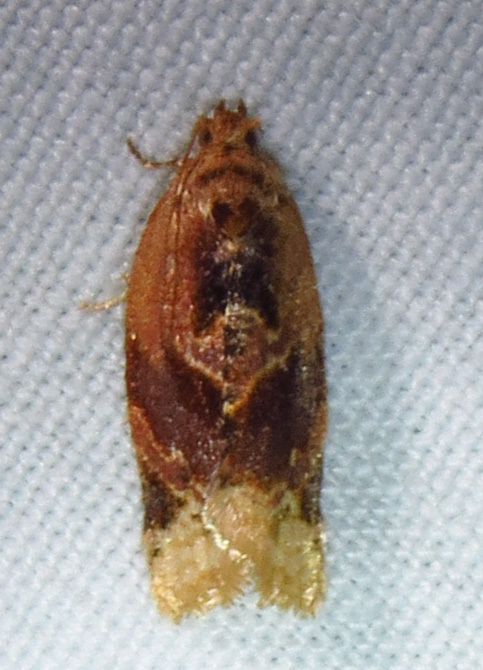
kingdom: Animalia
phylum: Arthropoda
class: Insecta
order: Lepidoptera
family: Tortricidae
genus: Argyrotaenia
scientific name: Argyrotaenia velutinana
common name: Red-banded leafroller moth
